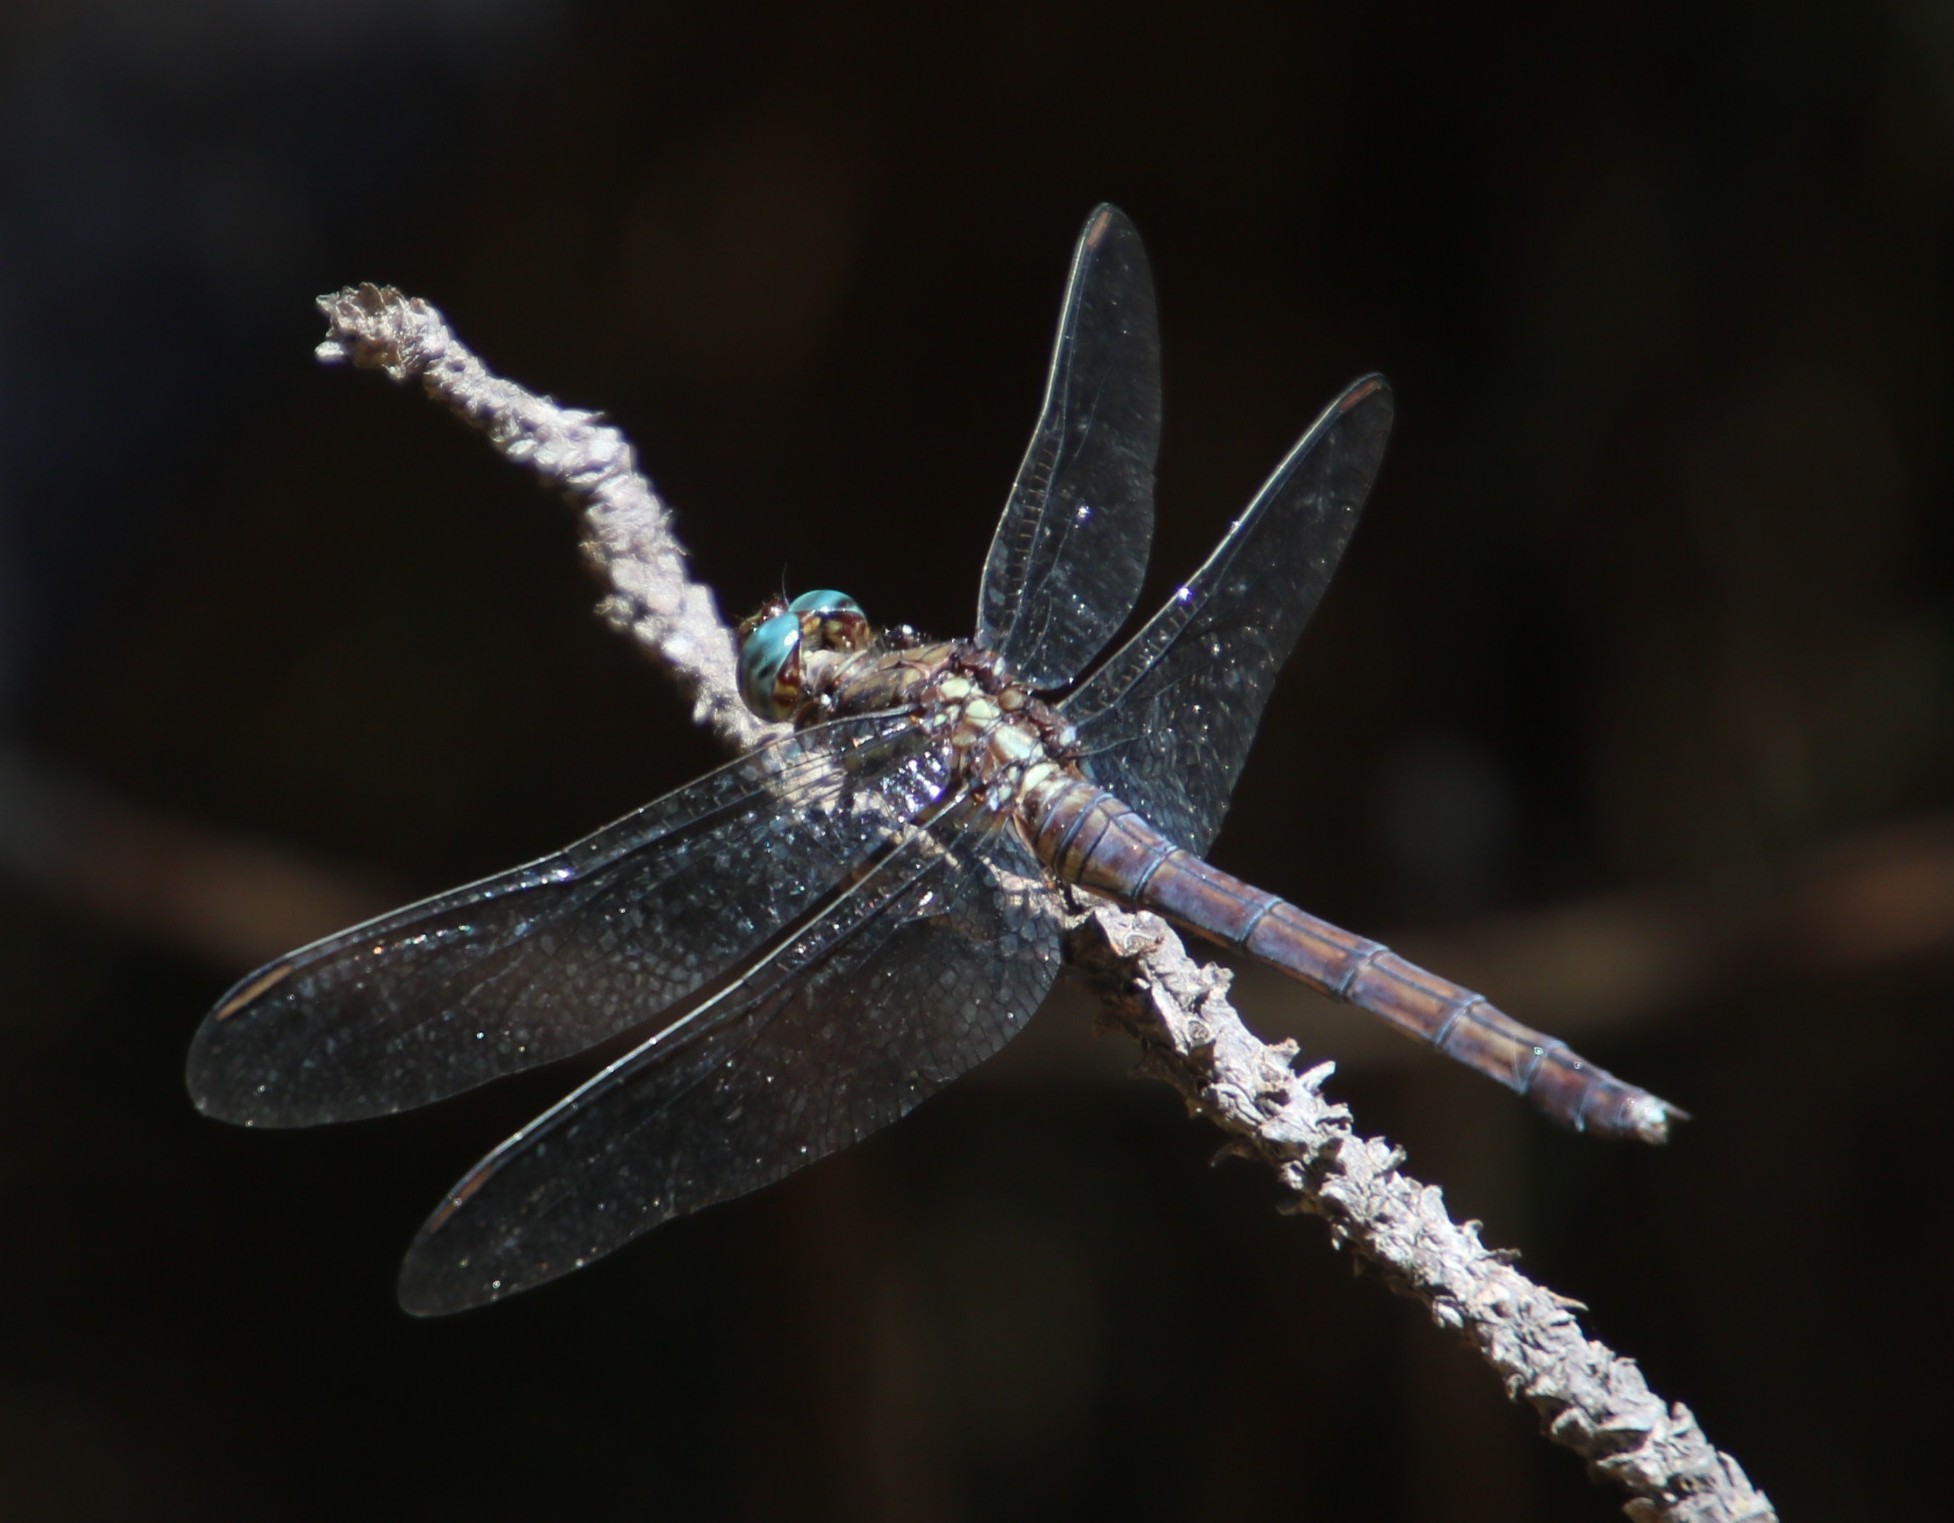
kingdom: Animalia
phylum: Arthropoda
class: Insecta
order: Odonata
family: Libellulidae
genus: Orthetrum
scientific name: Orthetrum julia
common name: Julia skimmer
